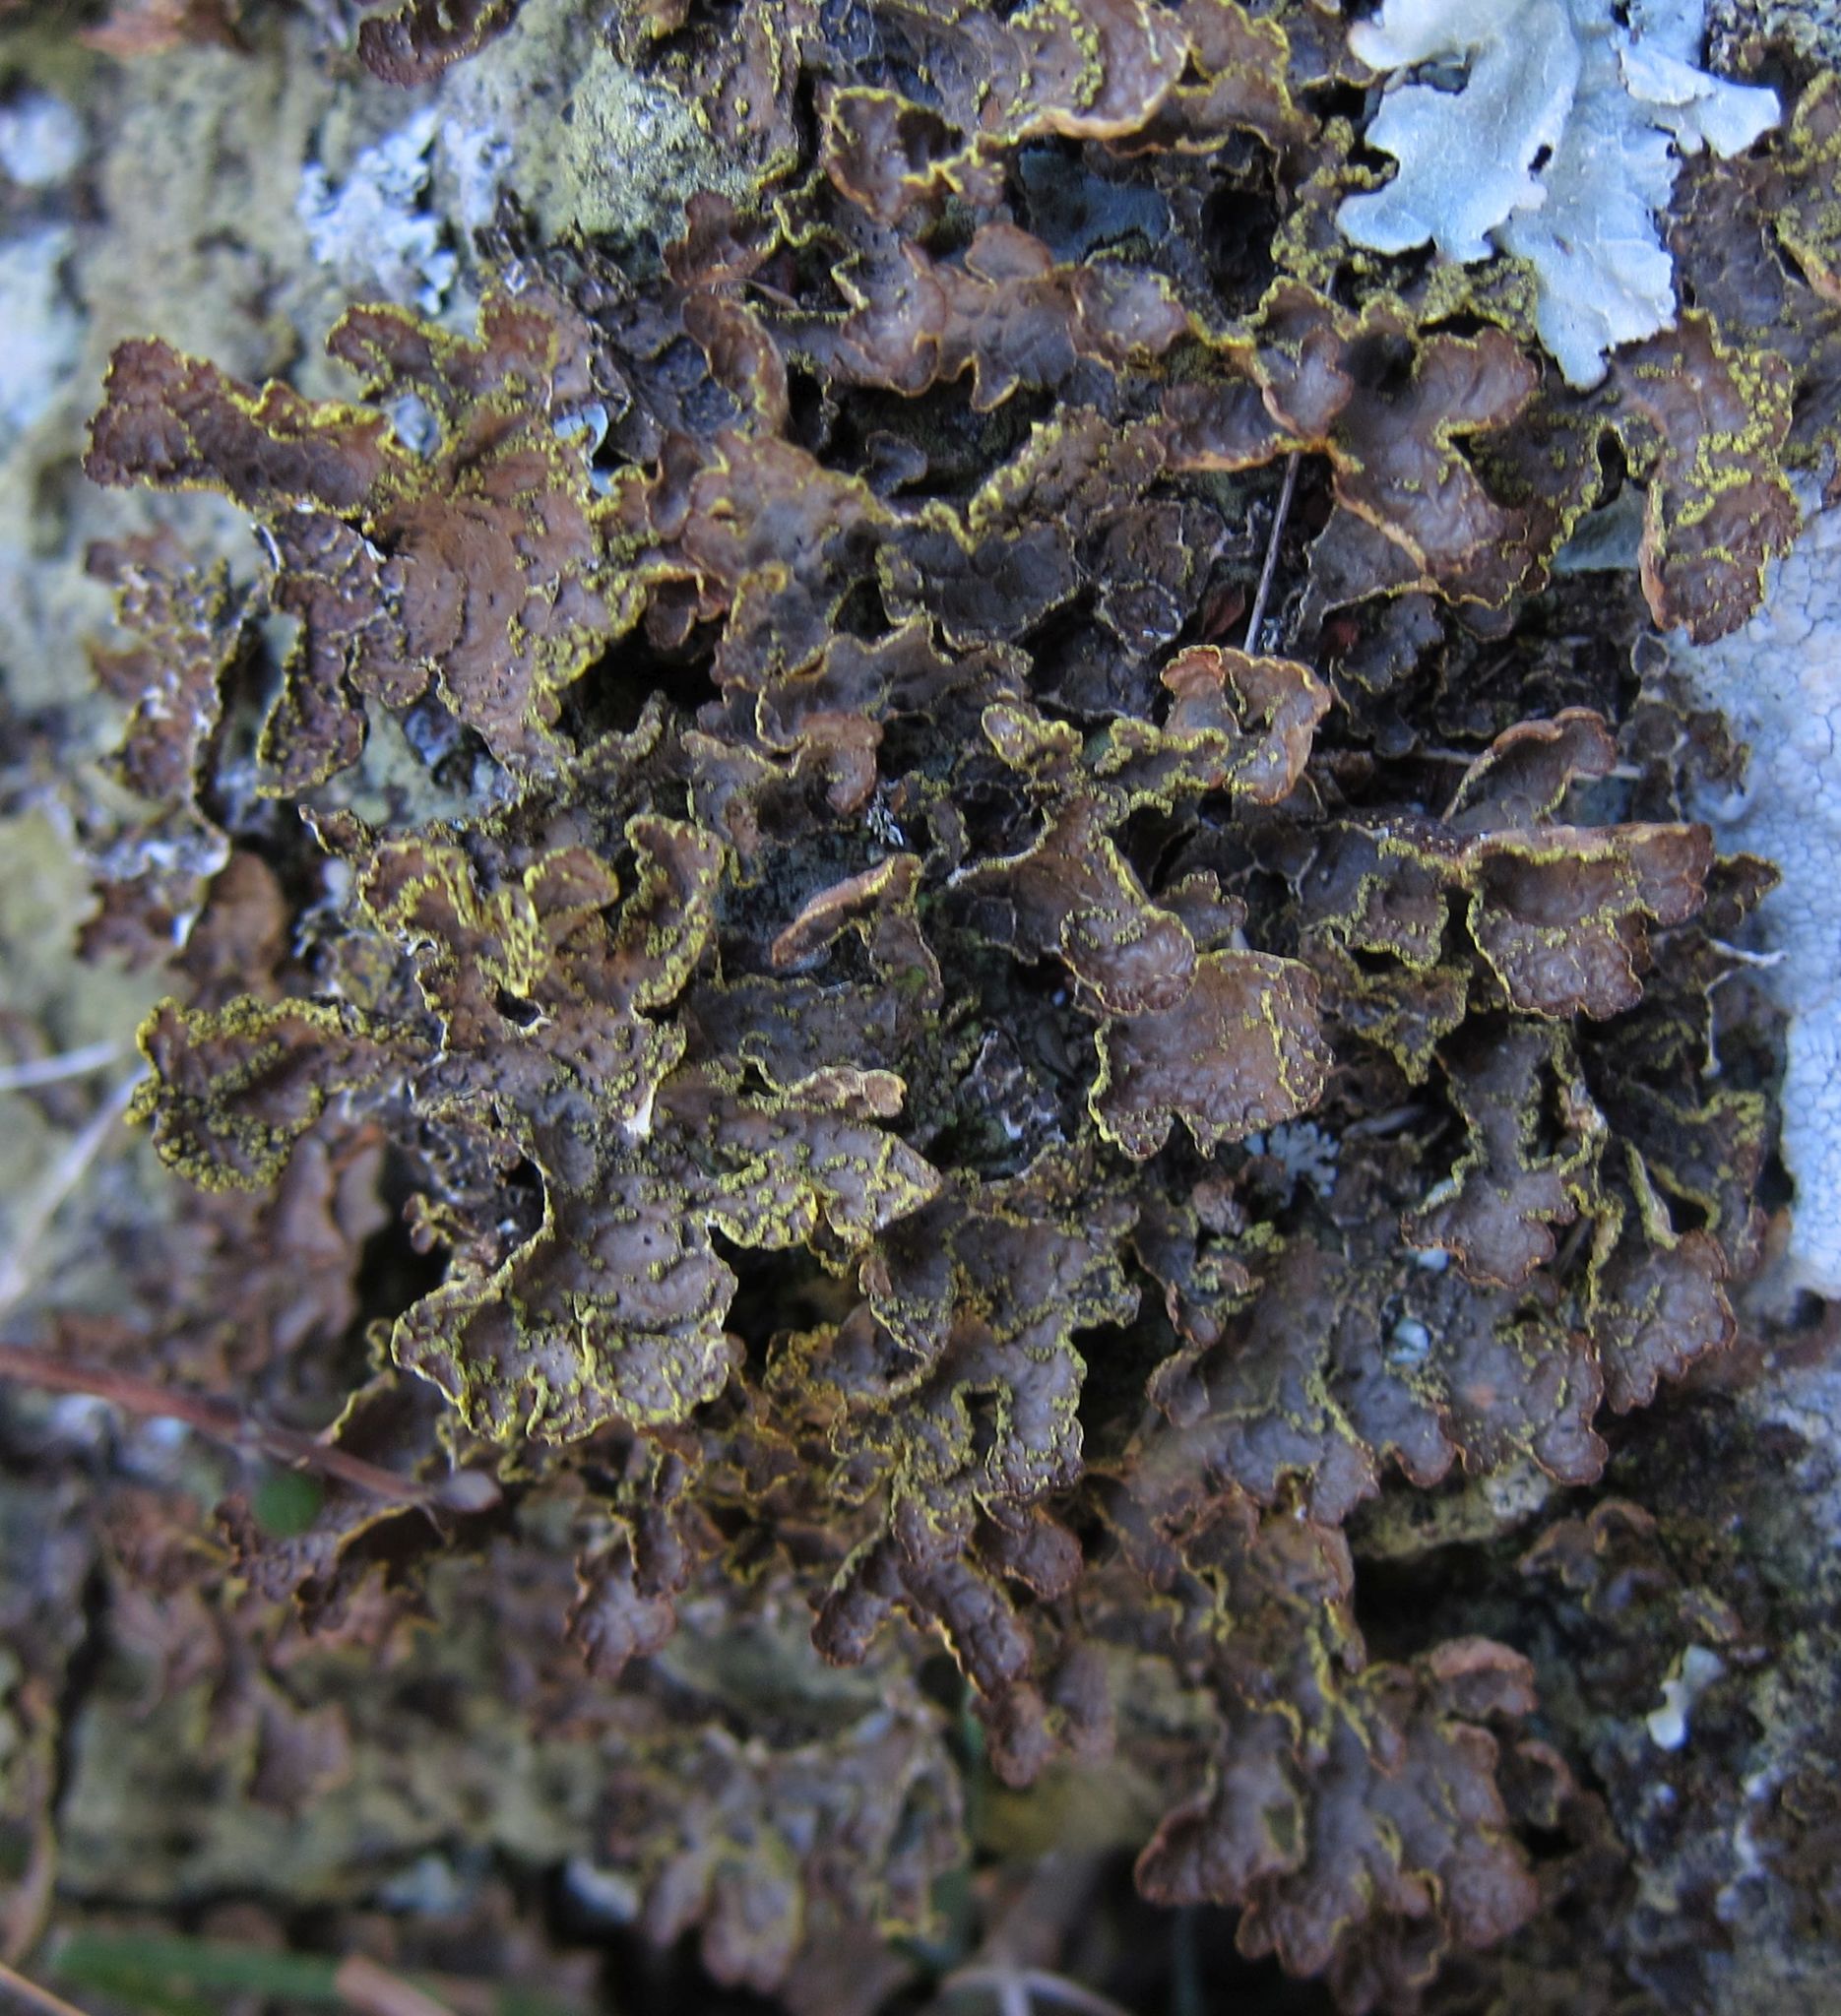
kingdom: Fungi
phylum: Ascomycota
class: Lecanoromycetes
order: Peltigerales
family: Lobariaceae
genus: Pseudocyphellaria
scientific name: Pseudocyphellaria crocata
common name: Golden specklebelly
